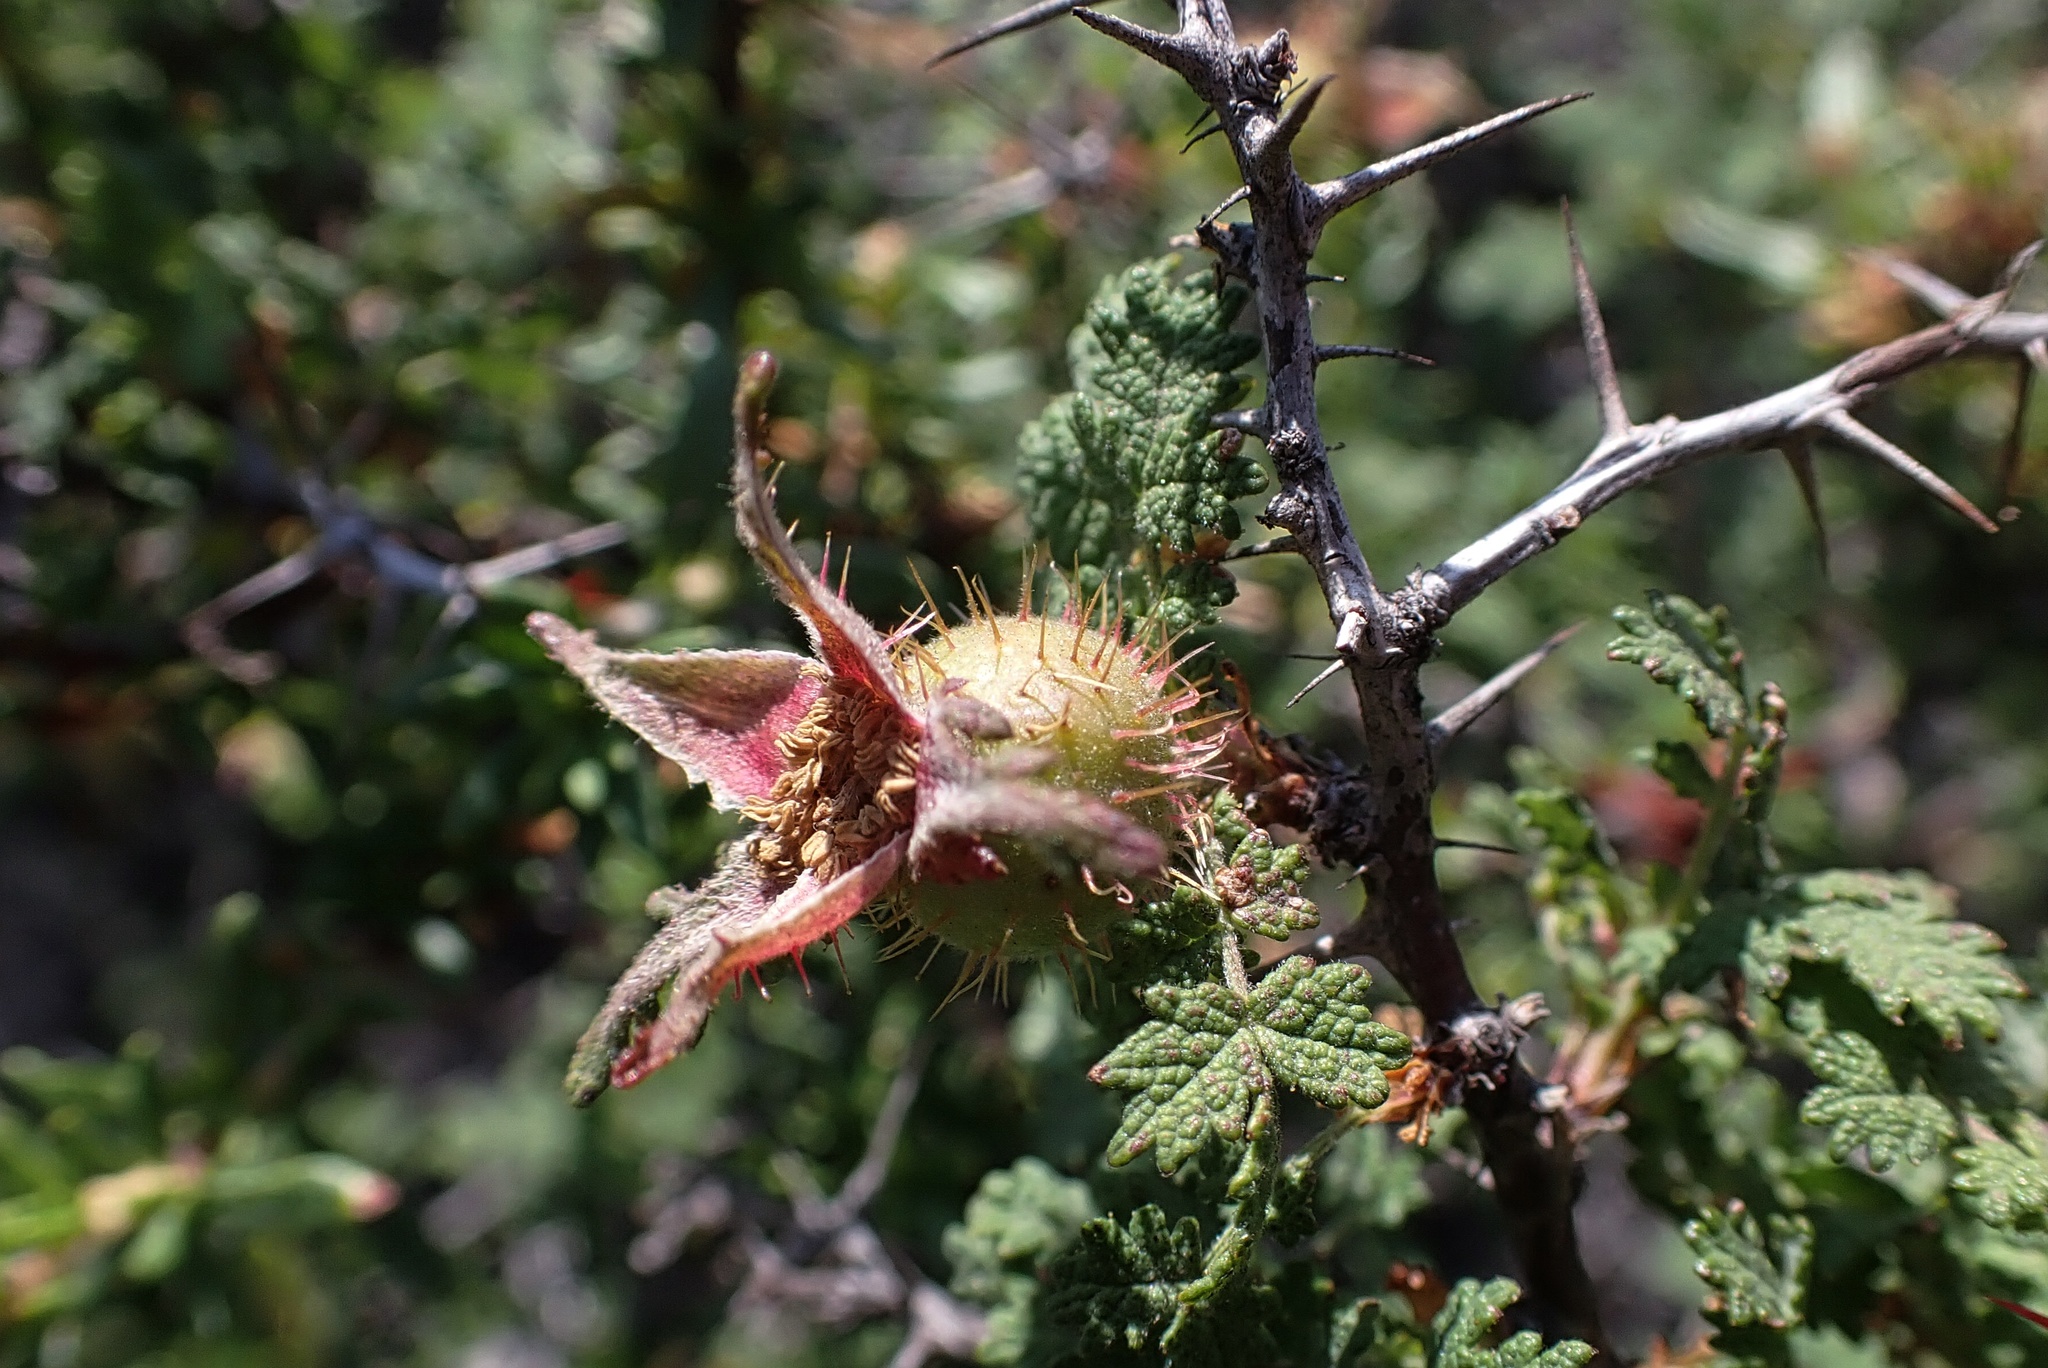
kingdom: Plantae
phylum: Tracheophyta
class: Magnoliopsida
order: Rosales
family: Rosaceae
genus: Rosa
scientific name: Rosa minutifolia
